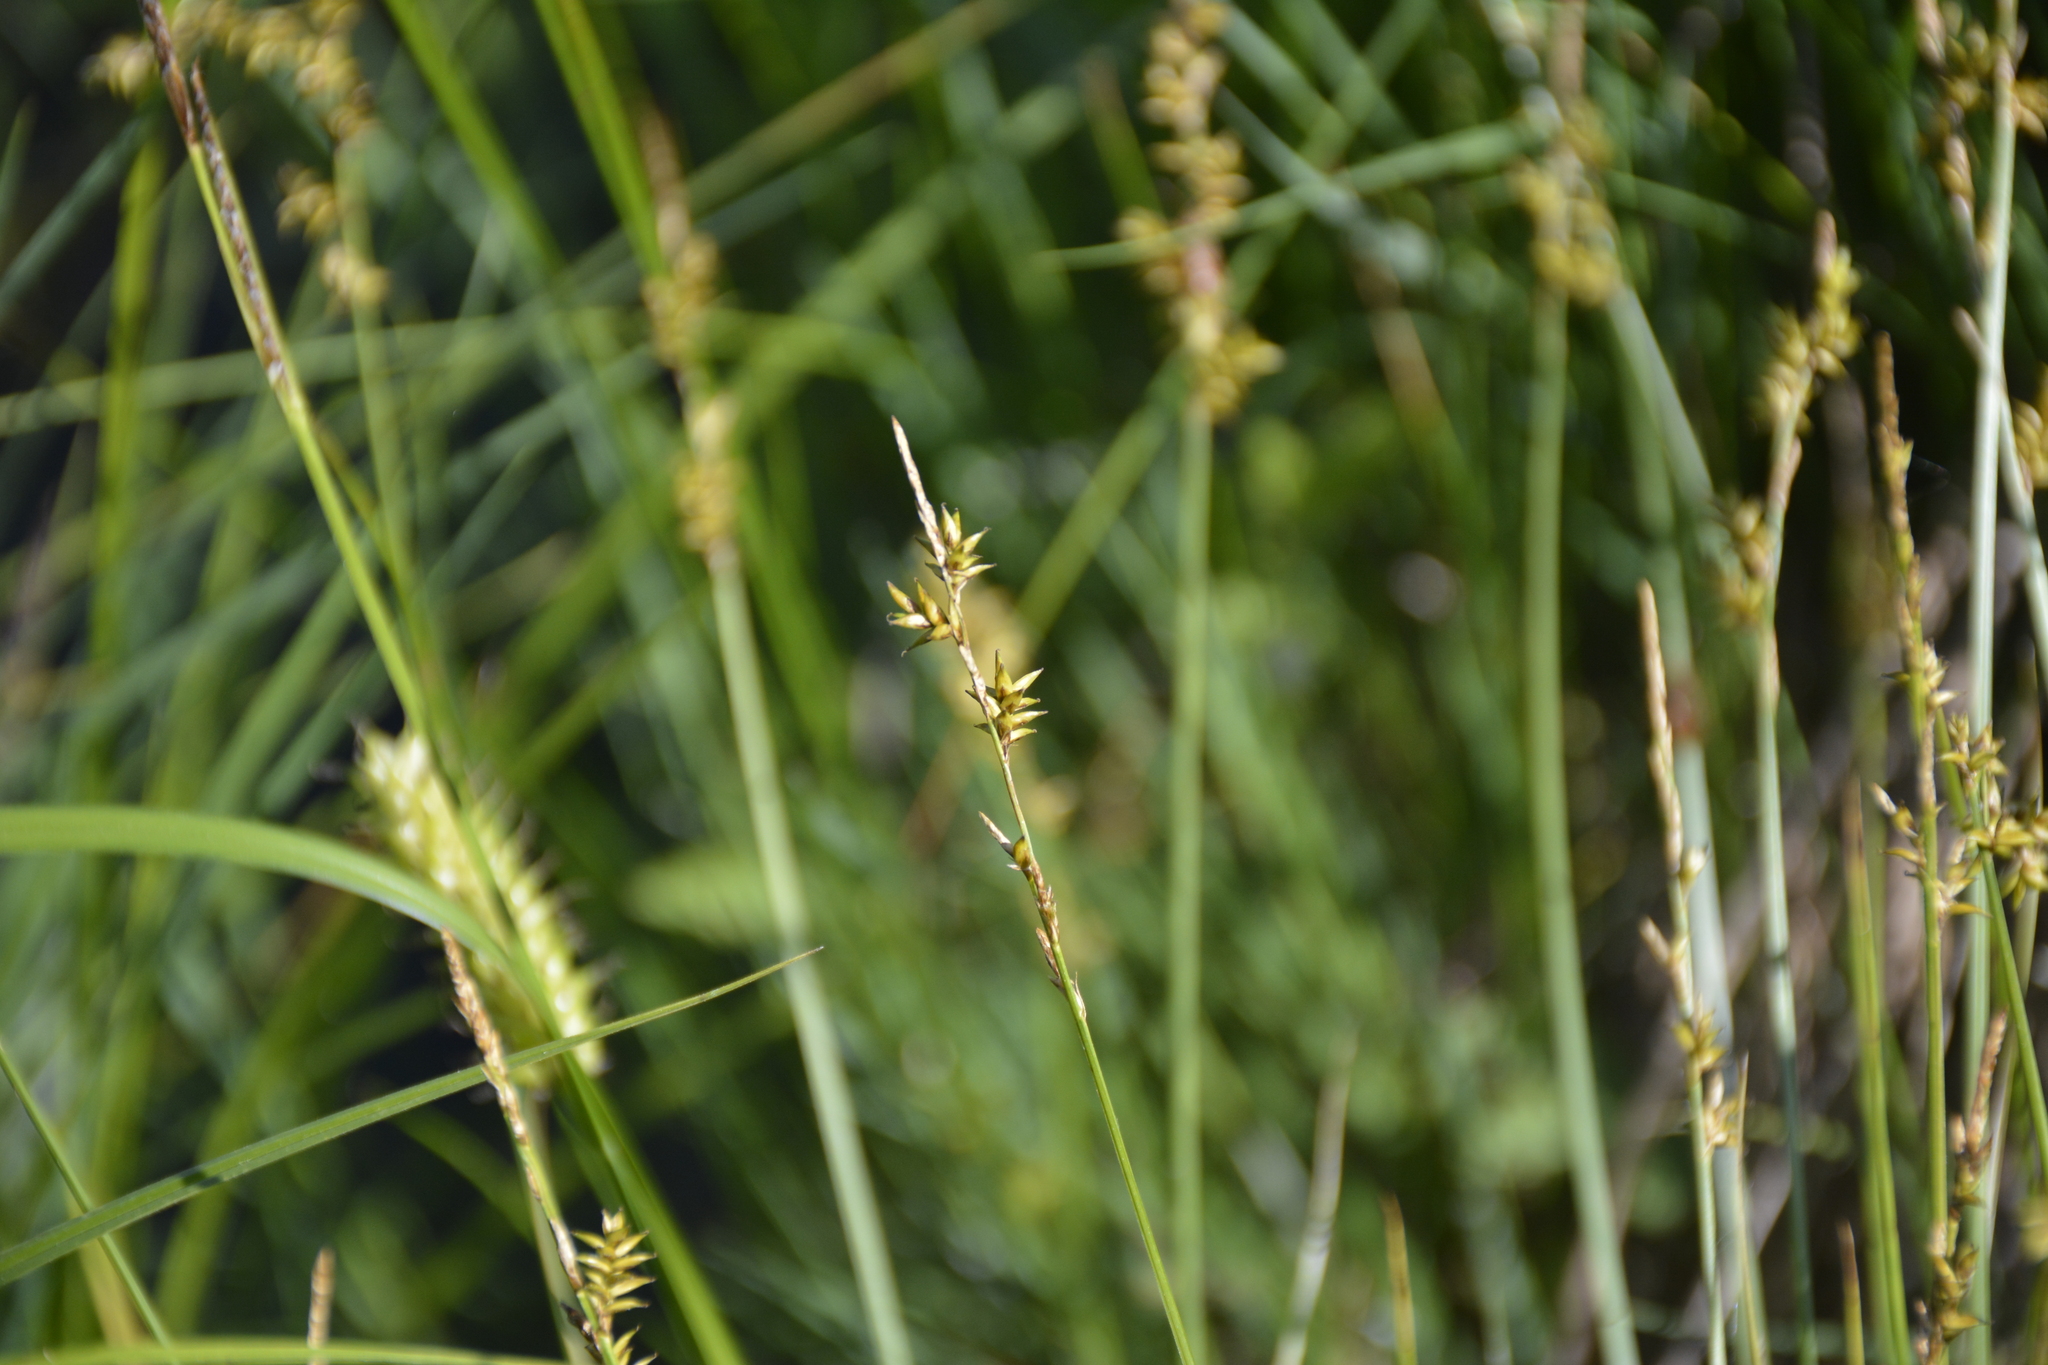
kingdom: Plantae
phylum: Tracheophyta
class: Liliopsida
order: Poales
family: Cyperaceae
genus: Carex
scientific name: Carex elongata
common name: Elongated sedge
